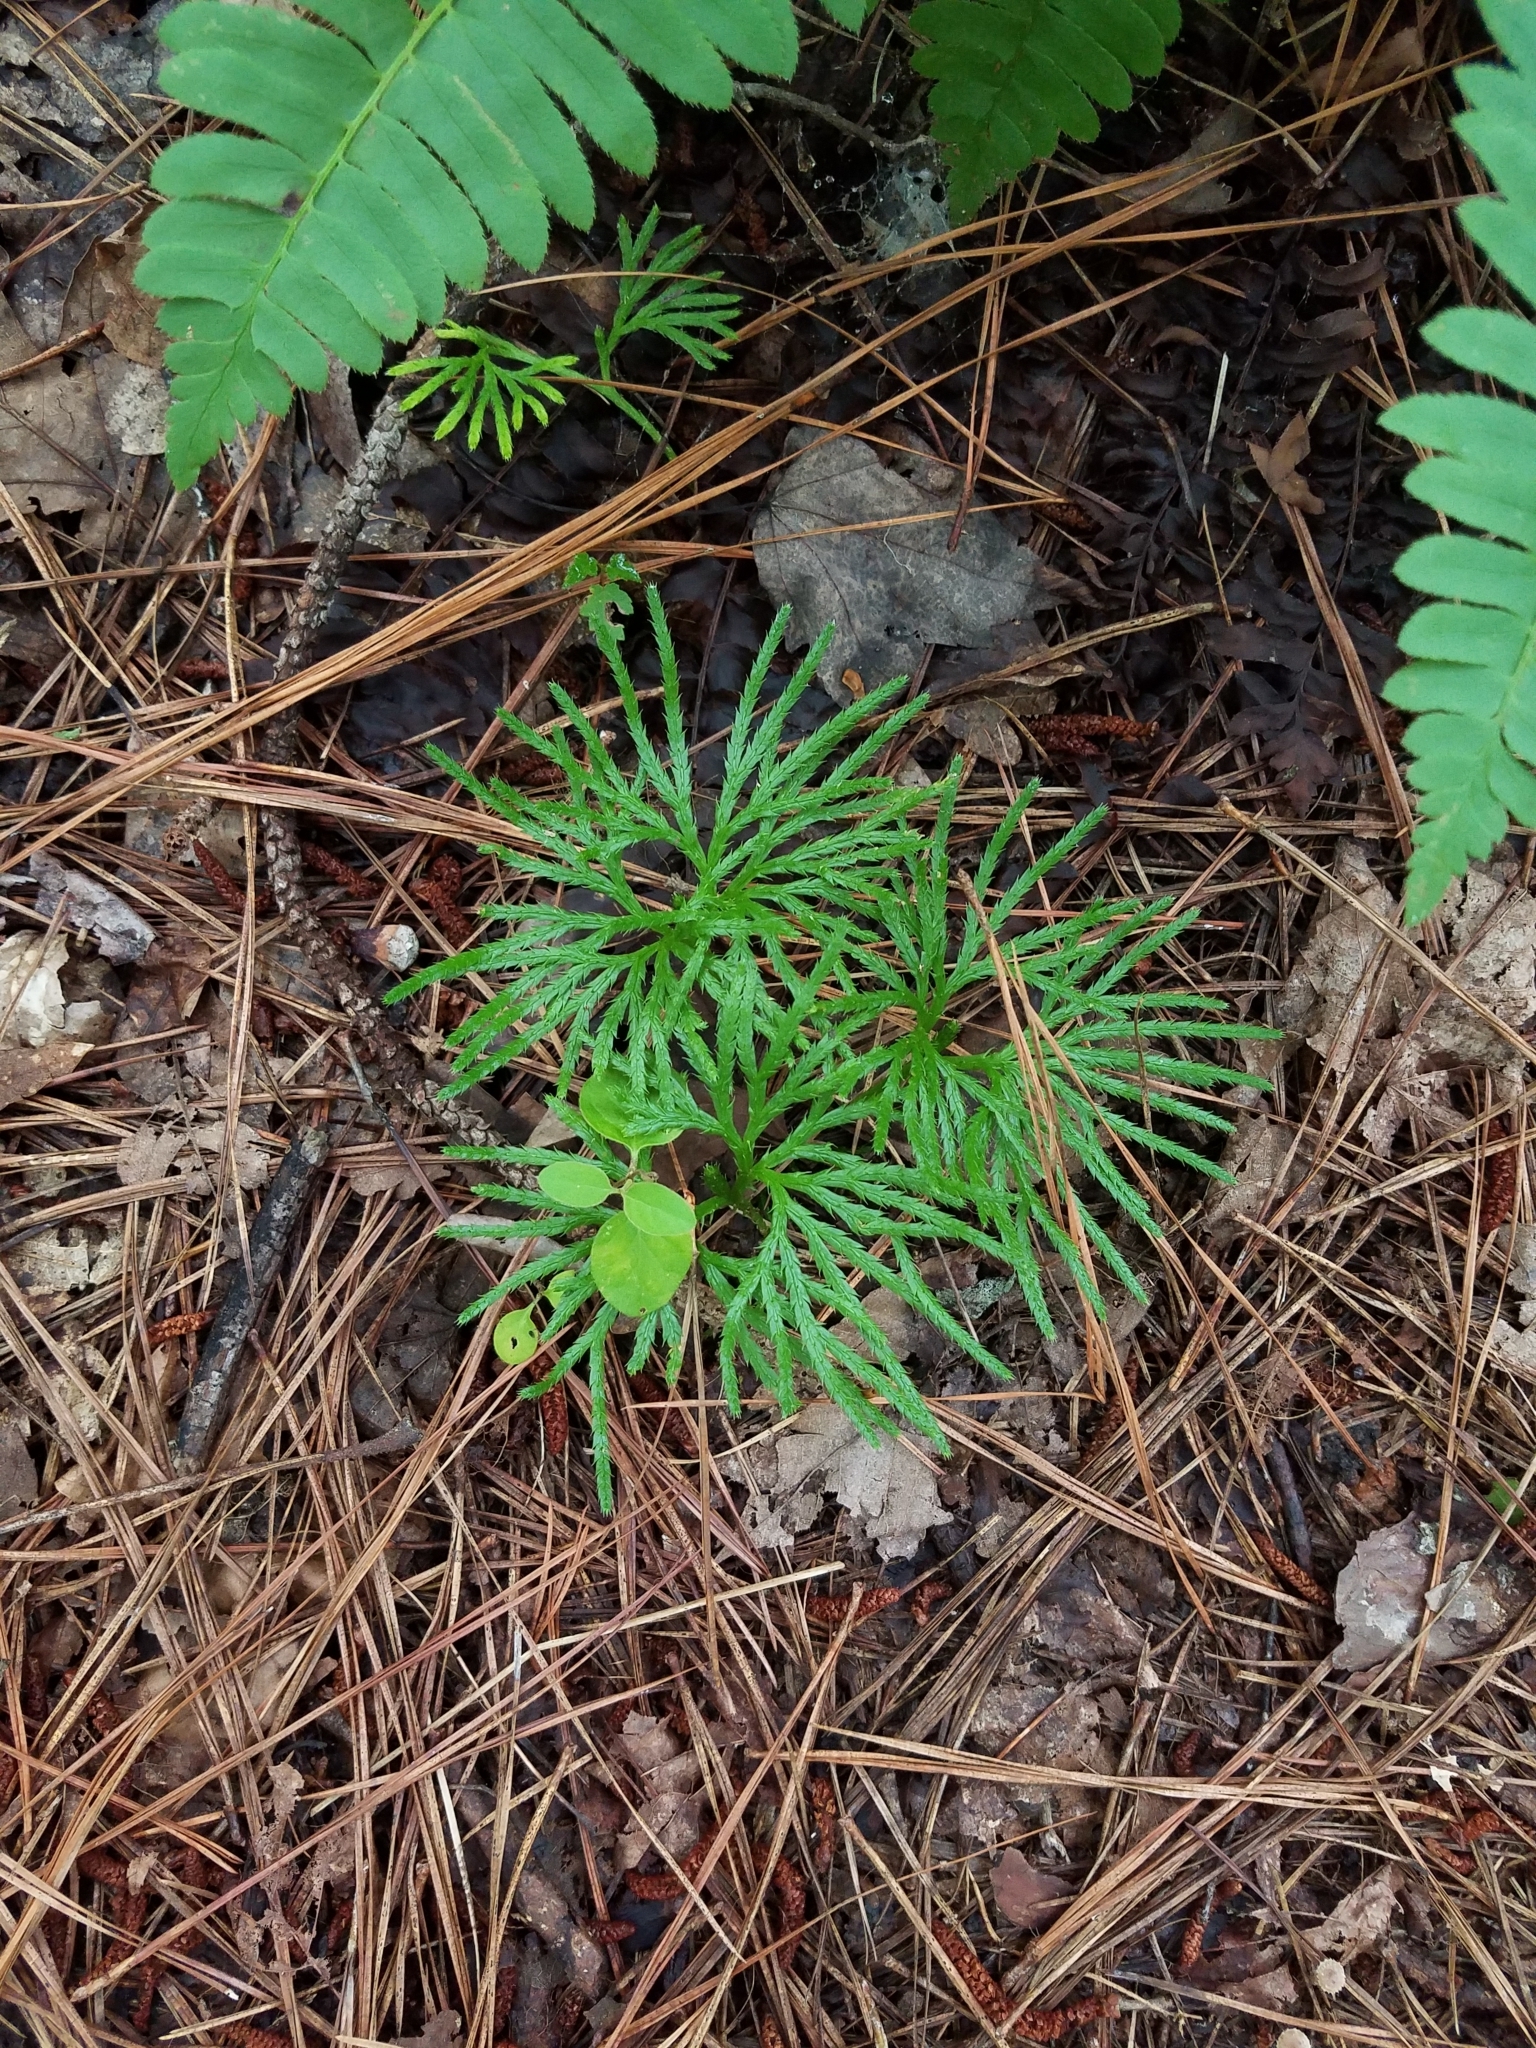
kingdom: Plantae
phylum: Tracheophyta
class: Lycopodiopsida
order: Lycopodiales
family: Lycopodiaceae
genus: Diphasiastrum
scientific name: Diphasiastrum digitatum
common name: Southern running-pine
